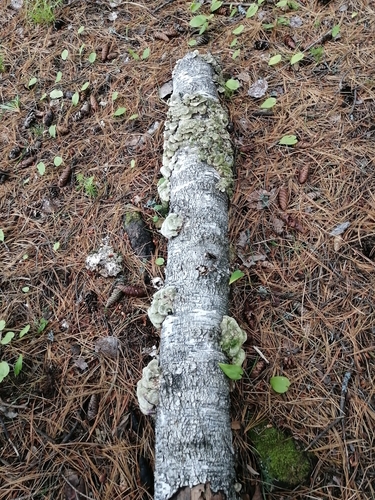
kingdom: Fungi
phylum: Basidiomycota
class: Agaricomycetes
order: Hymenochaetales
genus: Trichaptum
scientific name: Trichaptum biforme
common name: Violet-toothed polypore
